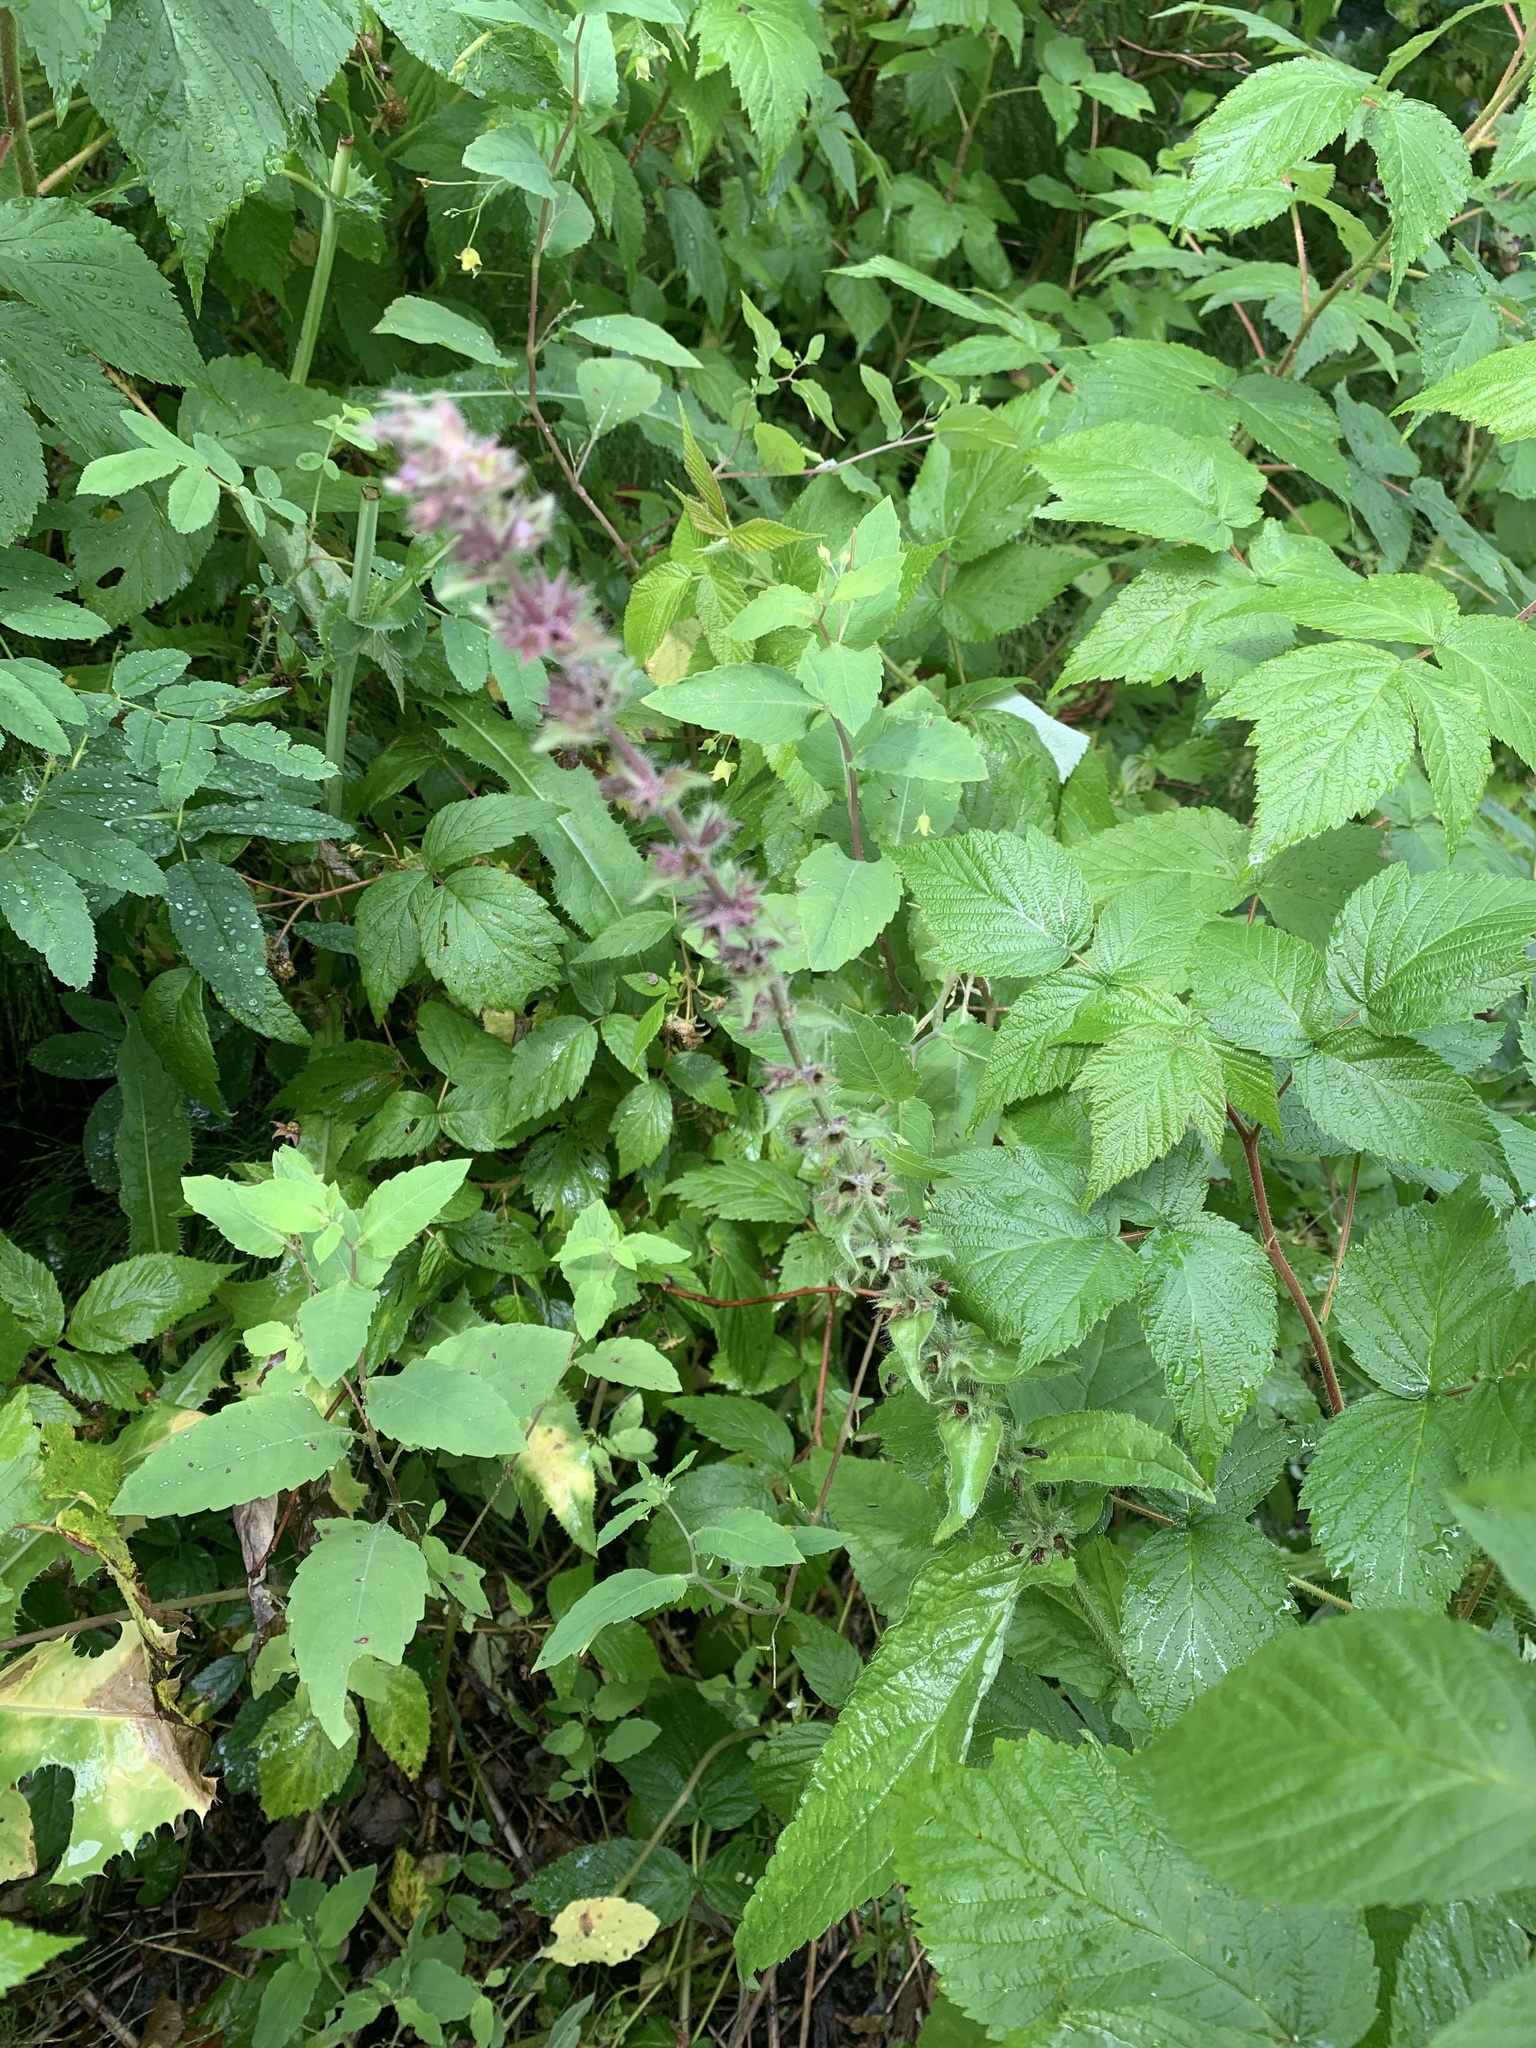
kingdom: Plantae
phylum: Tracheophyta
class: Magnoliopsida
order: Lamiales
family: Lamiaceae
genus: Stachys
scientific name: Stachys pilosa
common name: Hairy hedge-nettle
